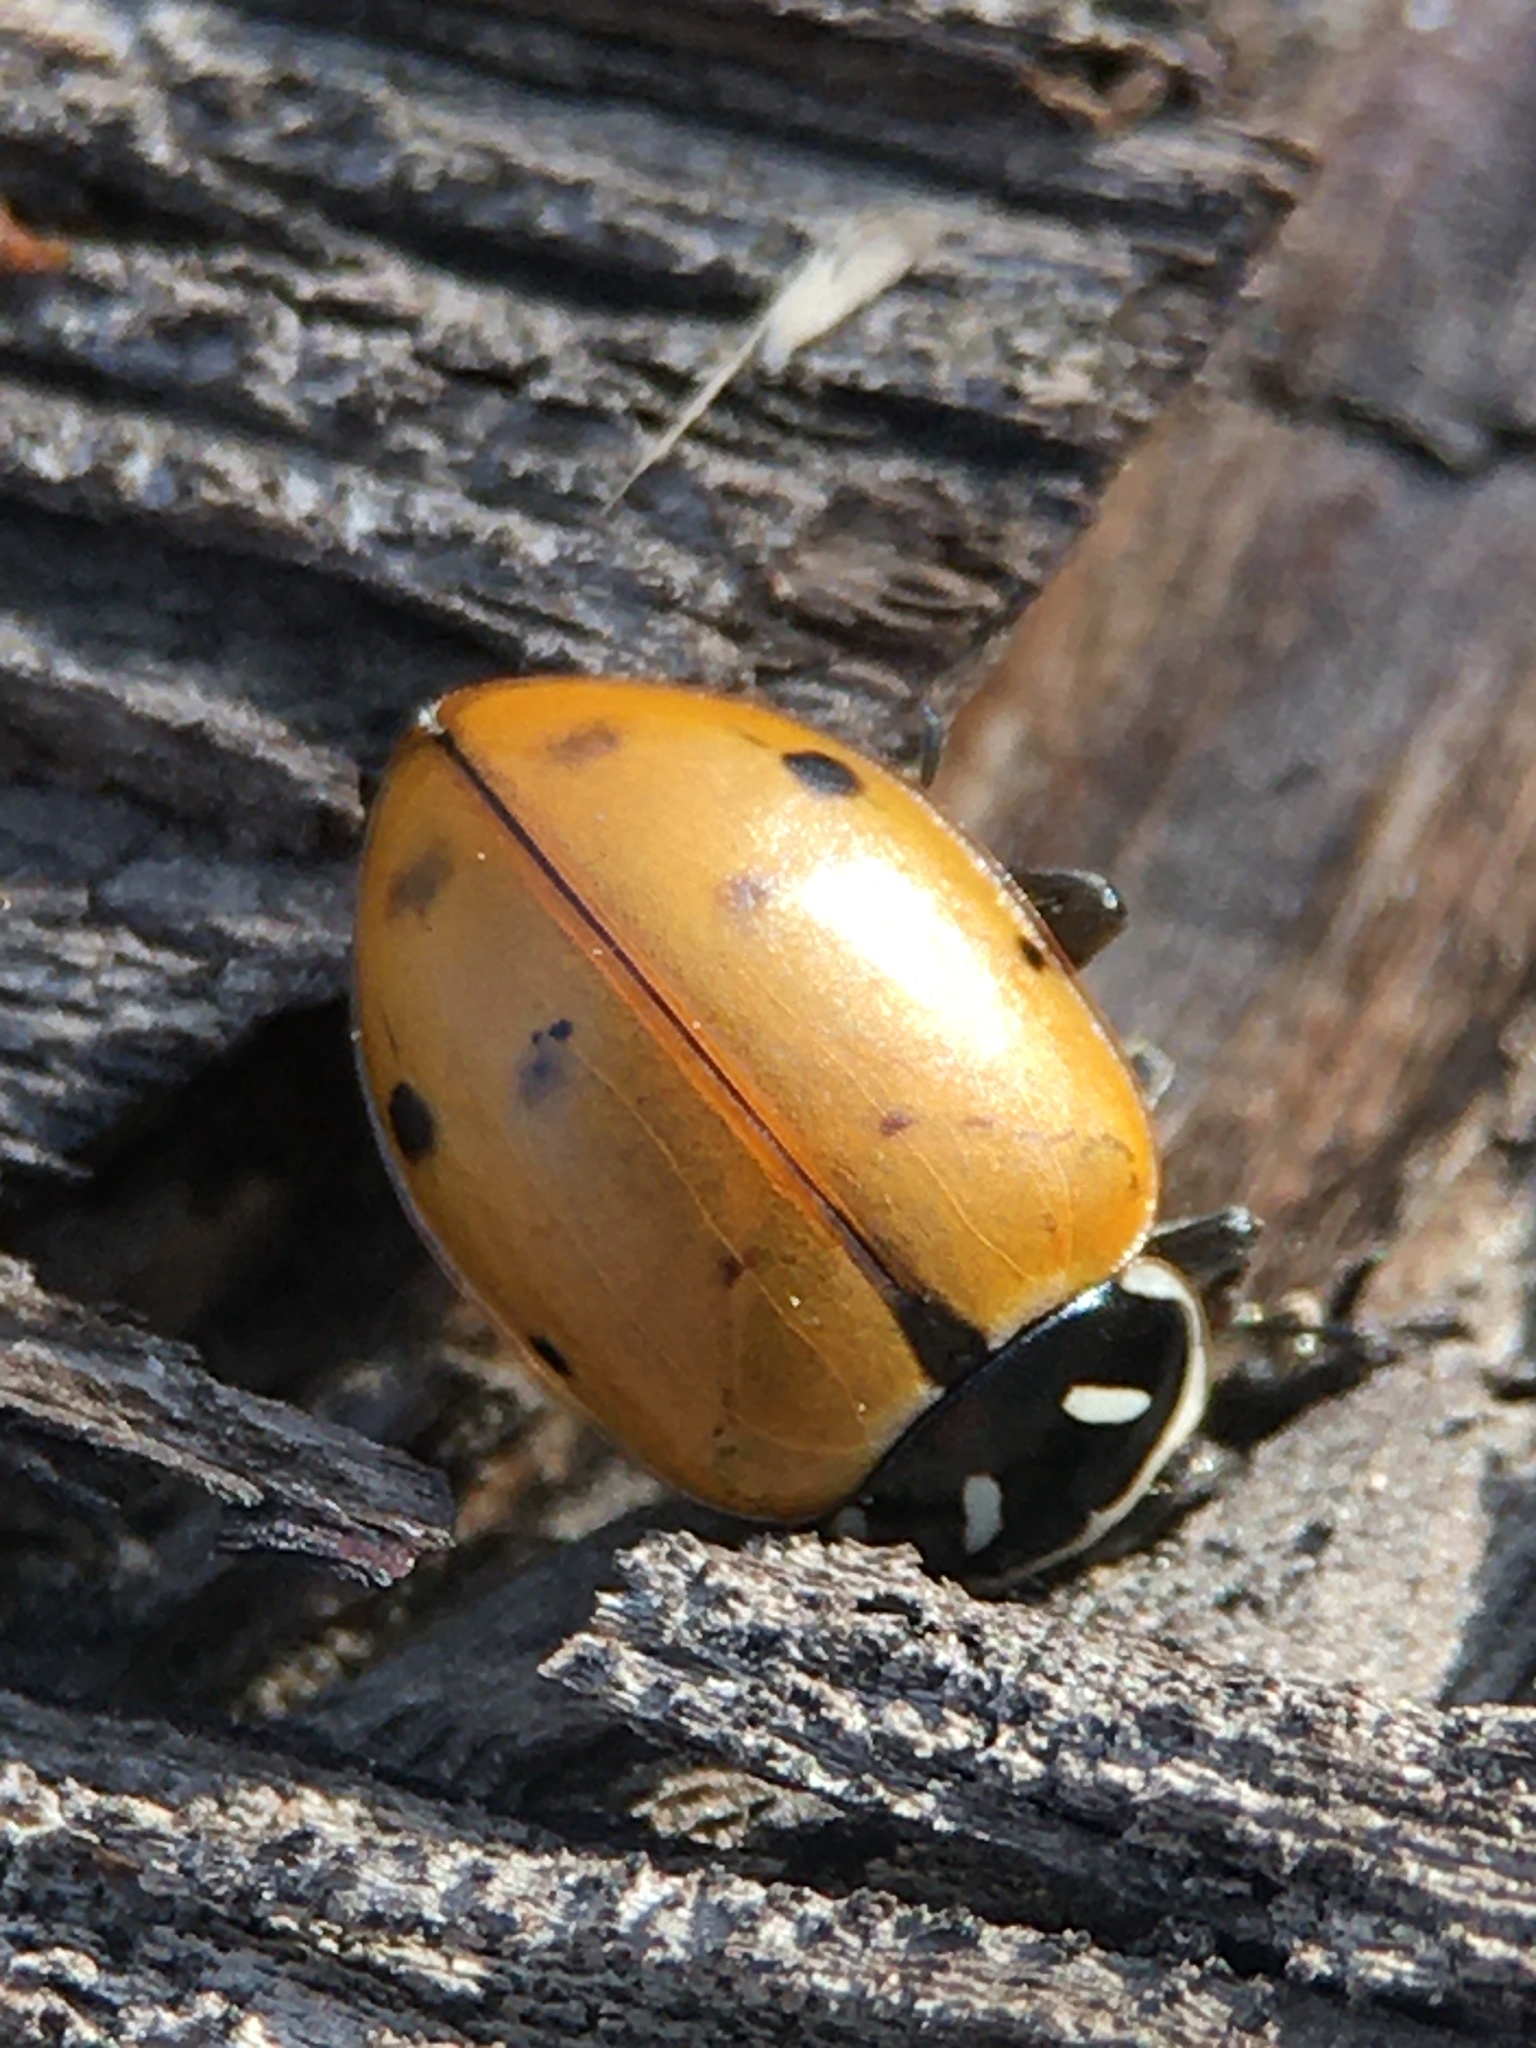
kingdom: Animalia
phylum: Arthropoda
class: Insecta
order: Coleoptera
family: Coccinellidae
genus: Hippodamia
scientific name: Hippodamia convergens
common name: Convergent lady beetle
